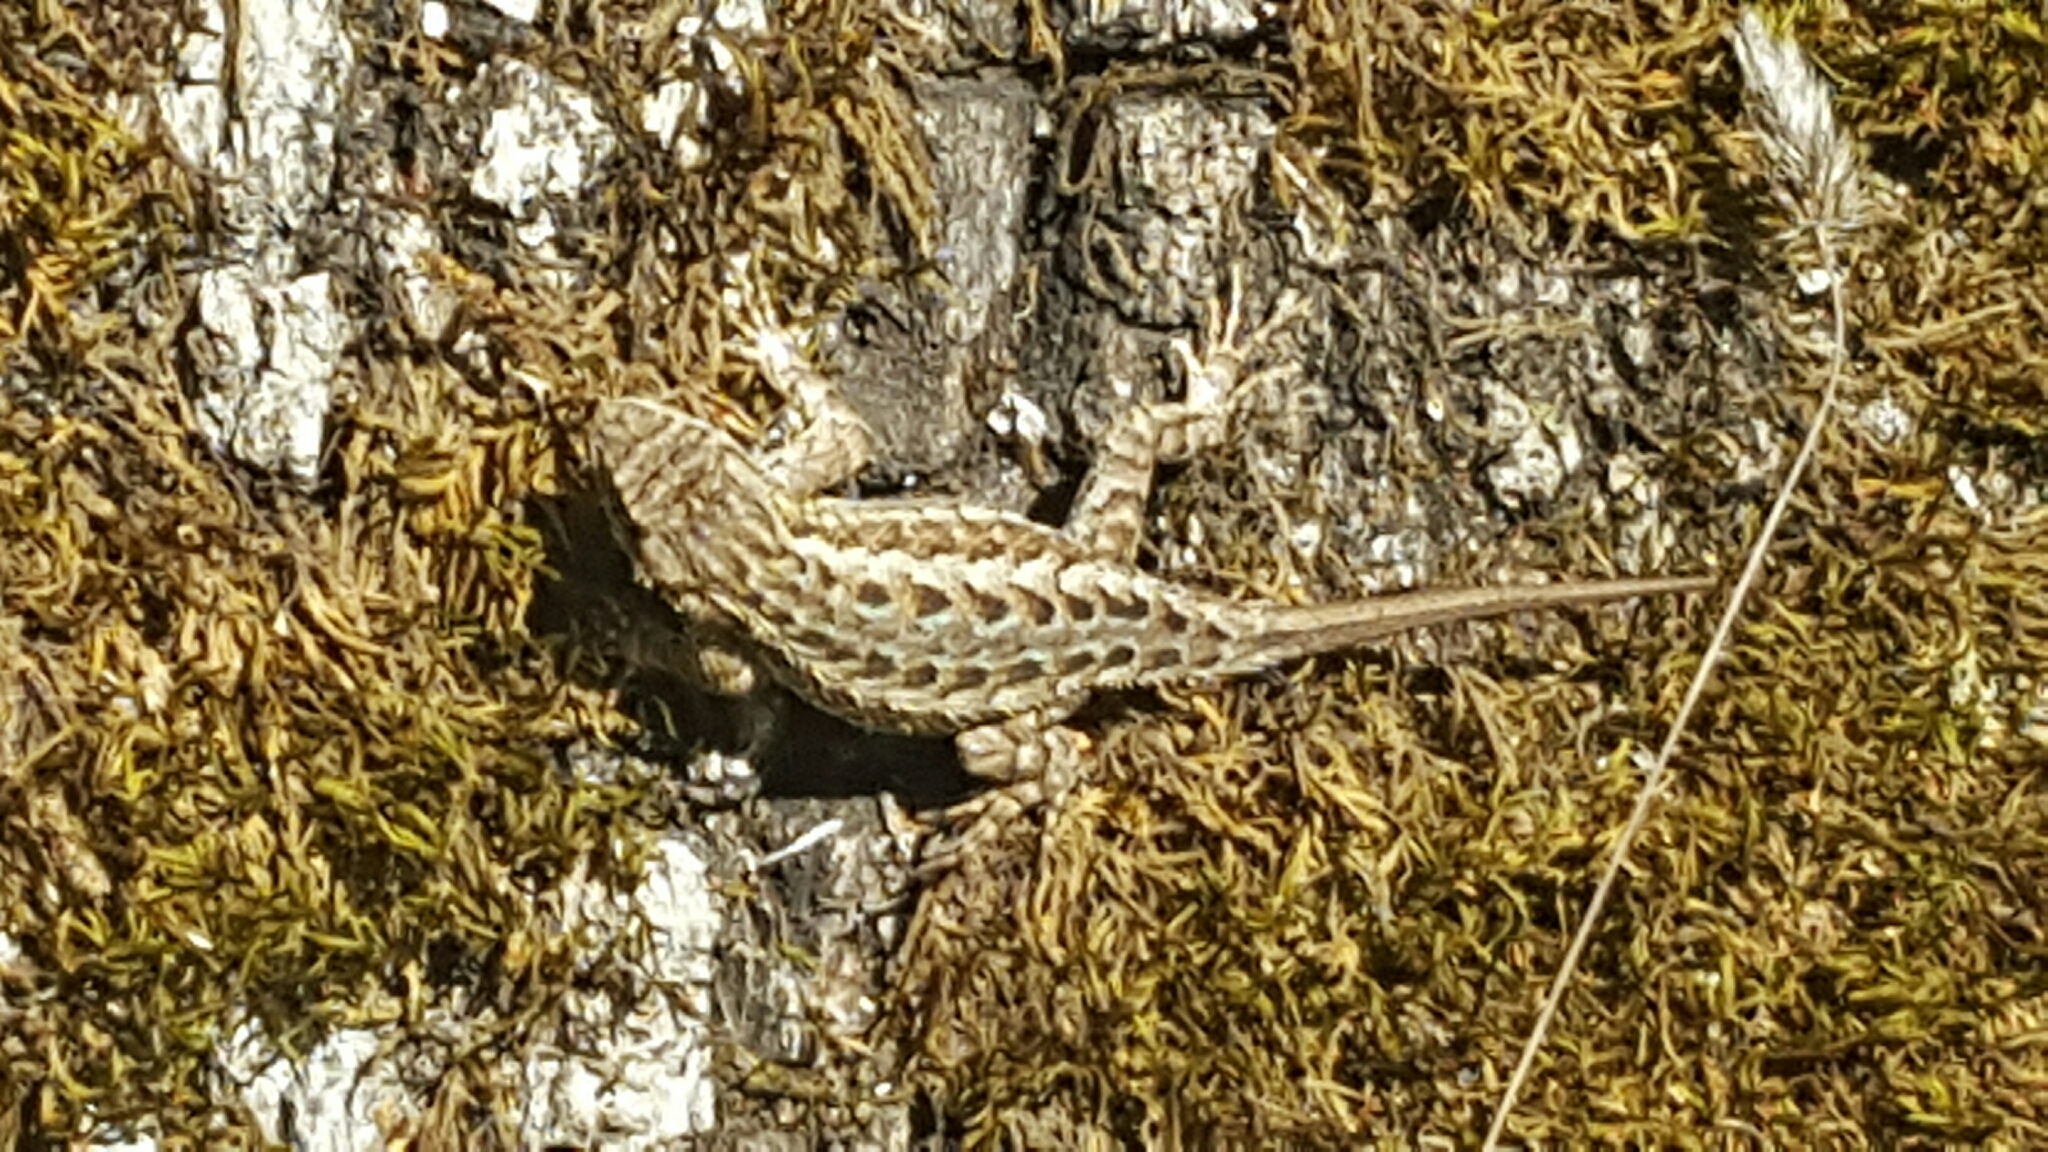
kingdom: Animalia
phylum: Chordata
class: Squamata
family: Phrynosomatidae
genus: Sceloporus
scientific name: Sceloporus occidentalis
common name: Western fence lizard
